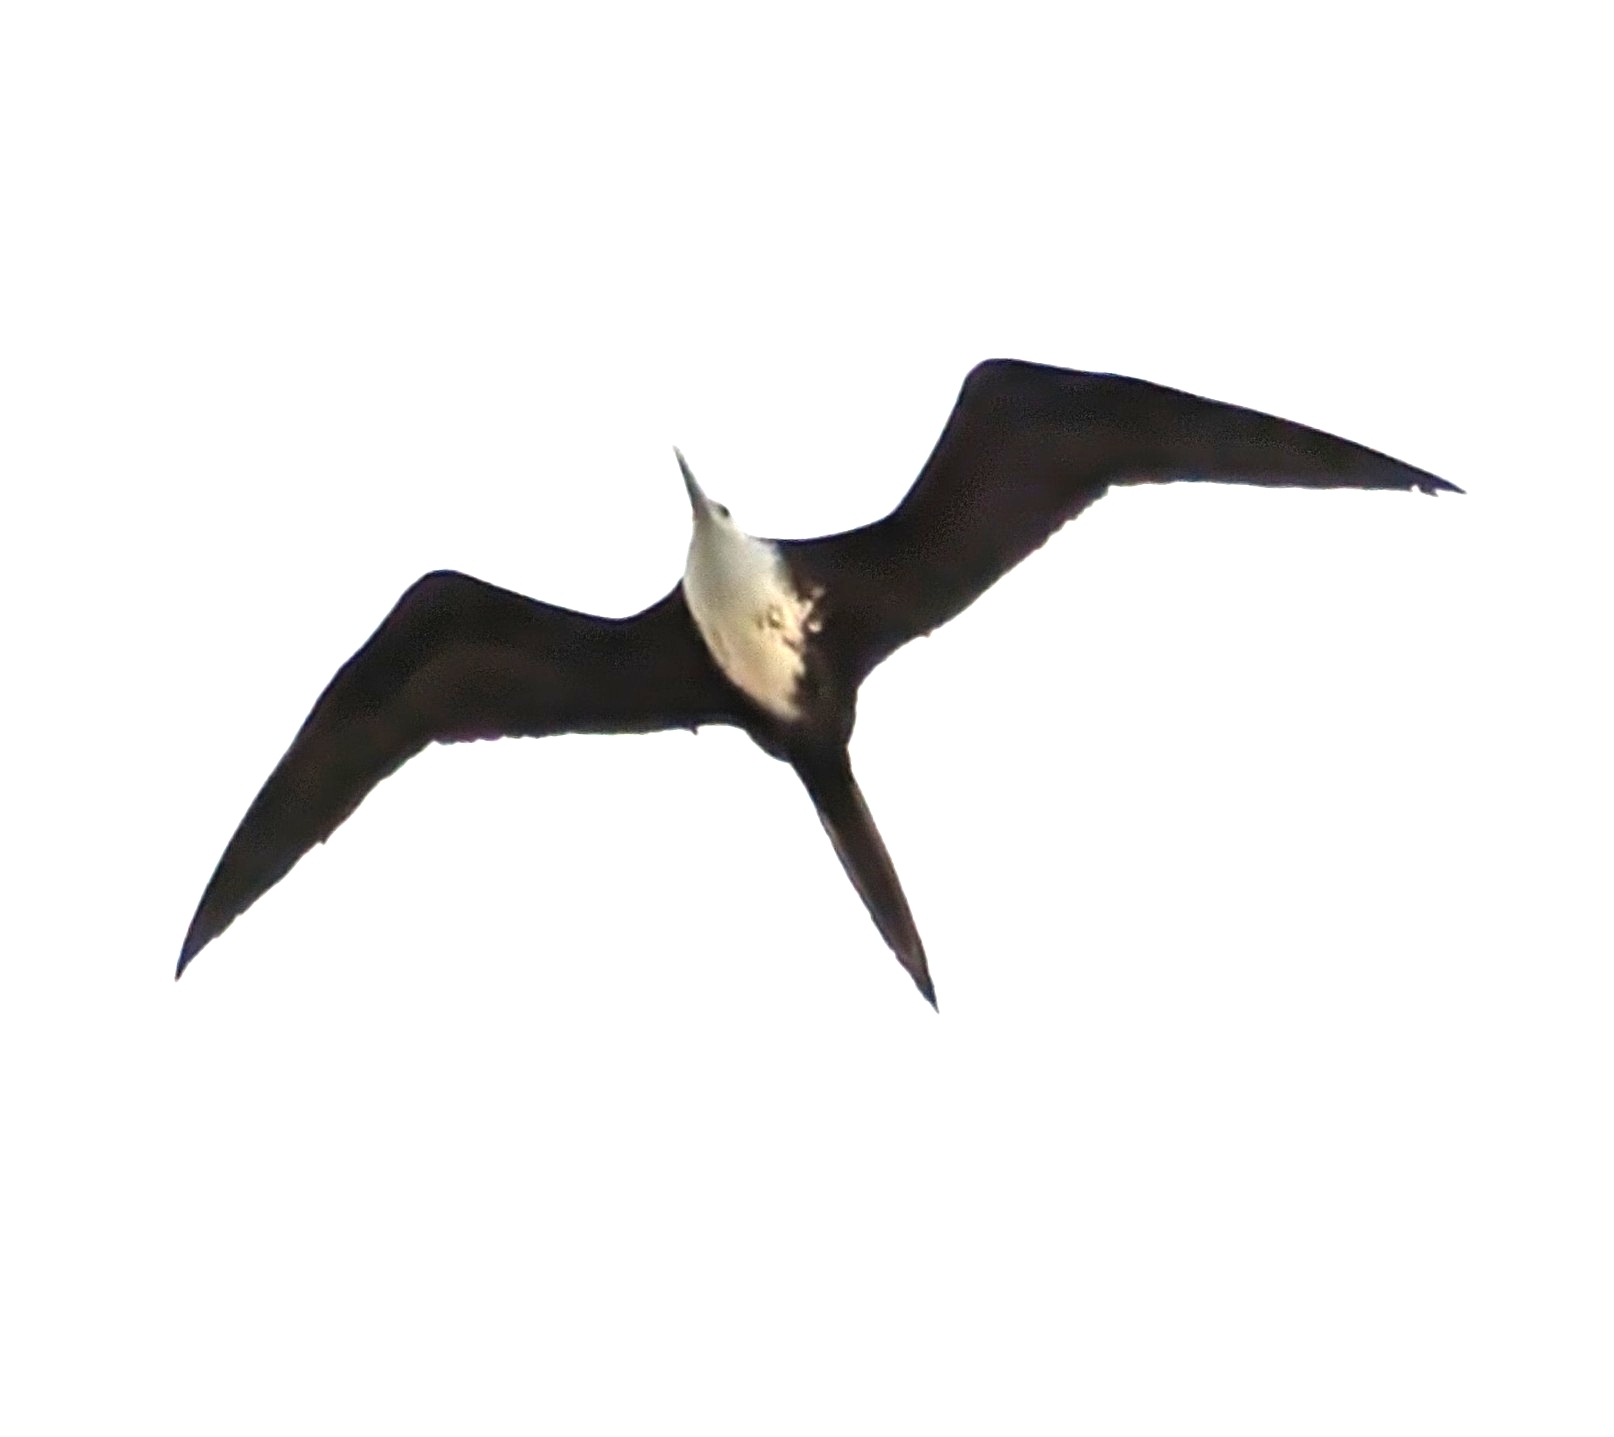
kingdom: Animalia
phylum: Chordata
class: Aves
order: Suliformes
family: Fregatidae
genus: Fregata
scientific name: Fregata magnificens
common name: Magnificent frigatebird
